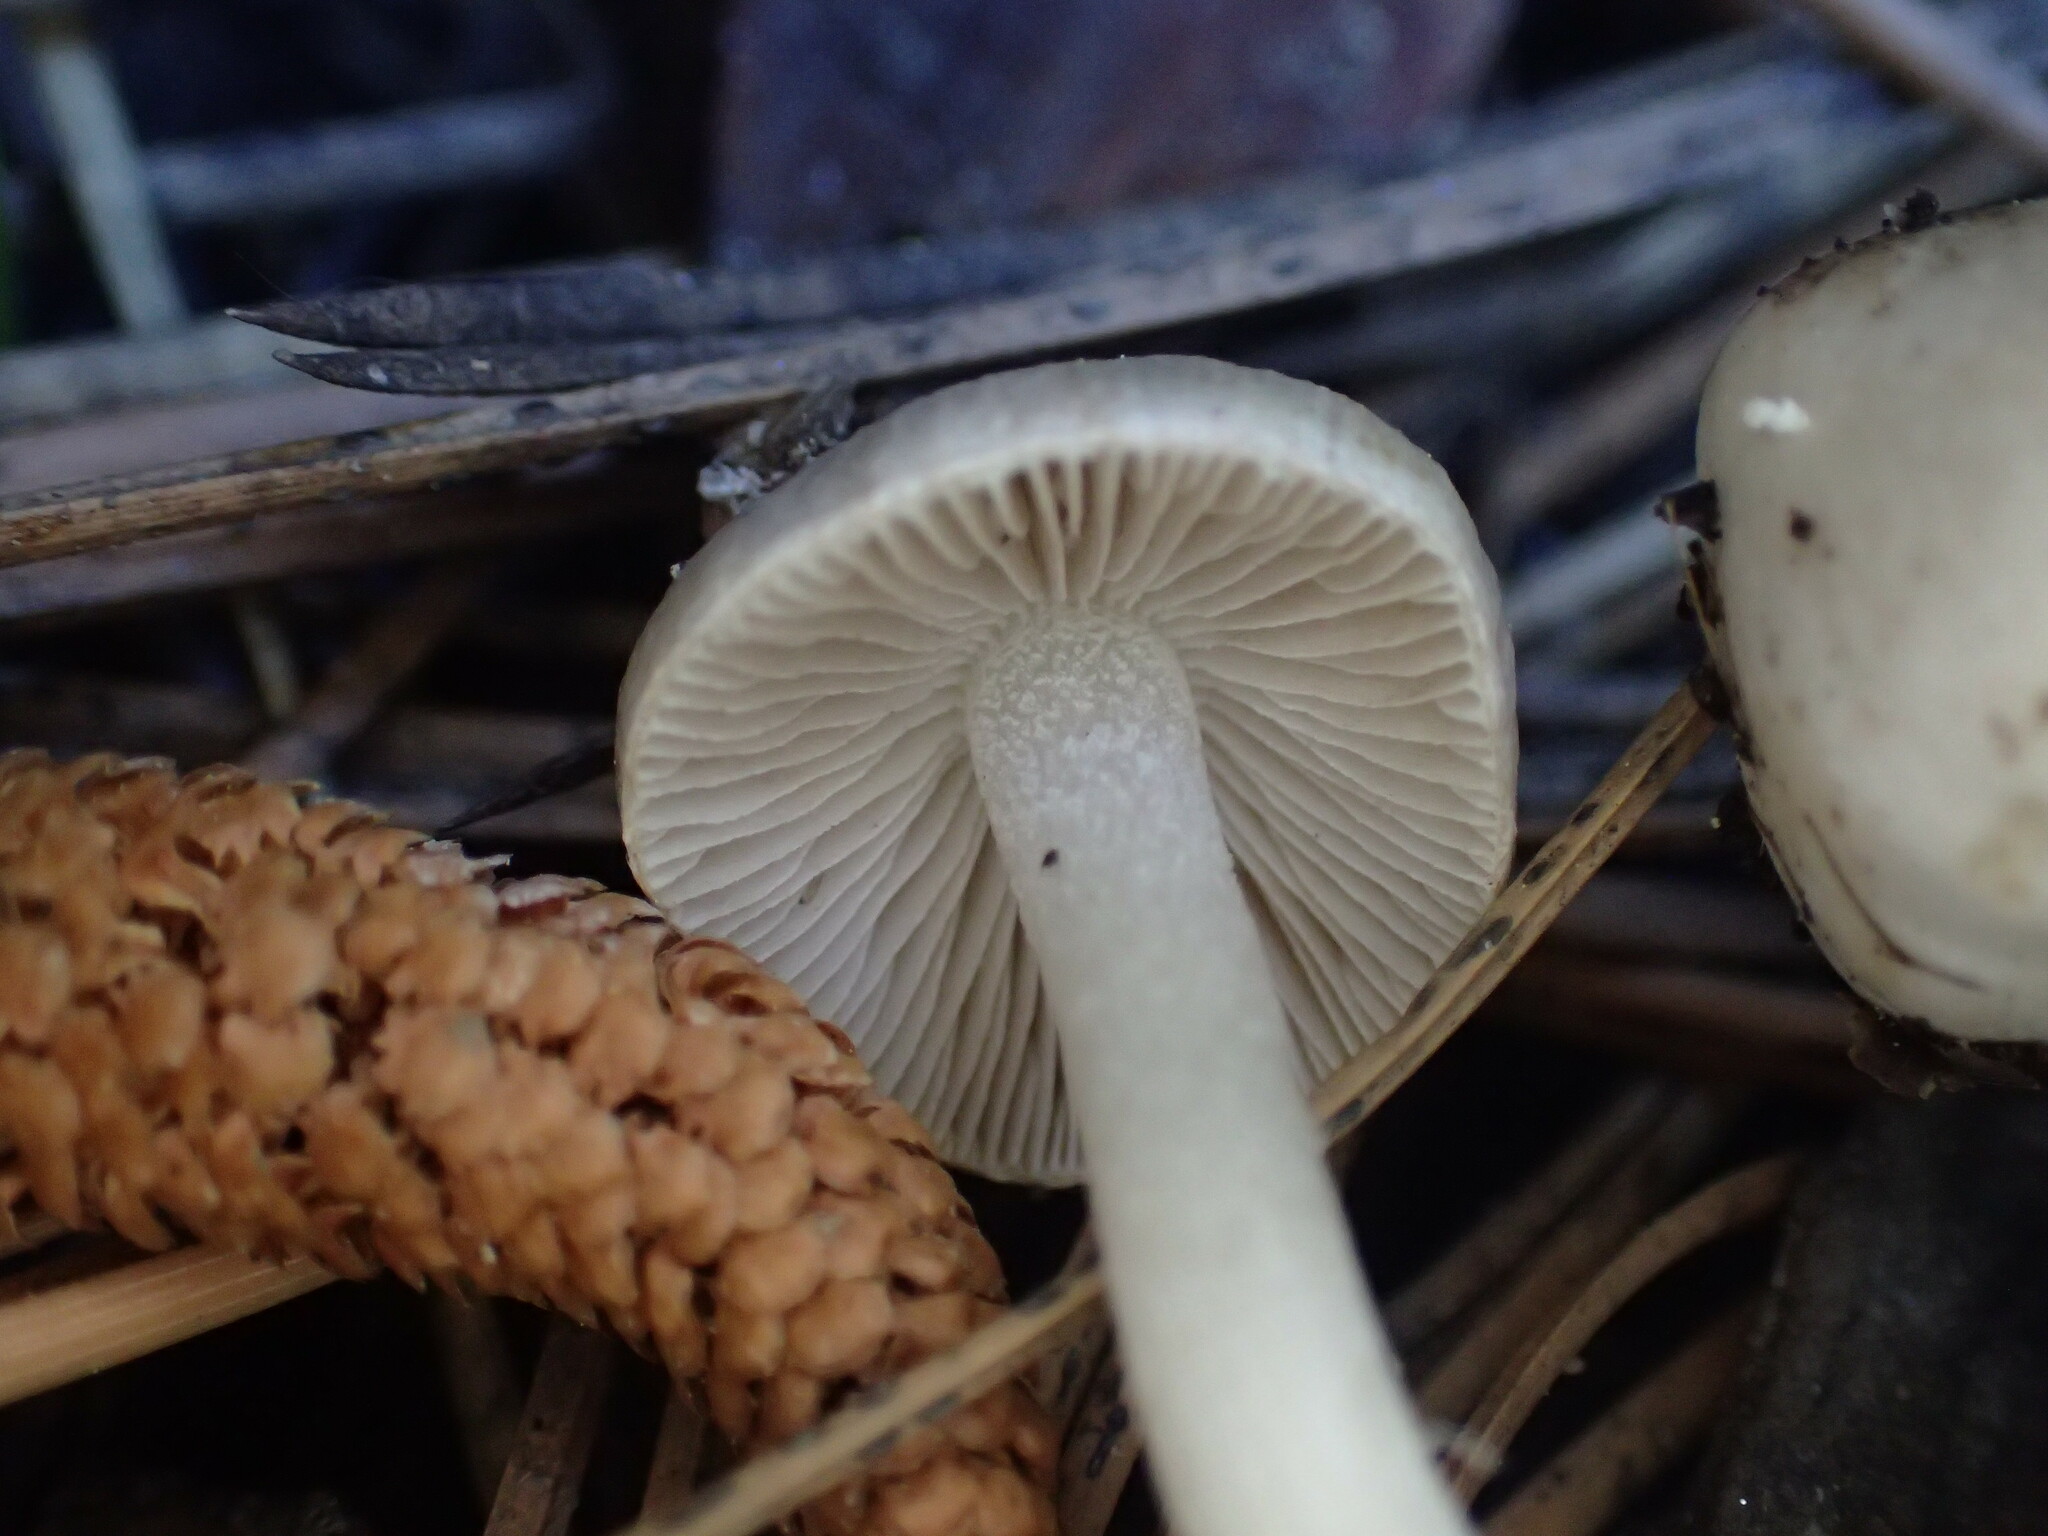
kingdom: Fungi
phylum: Basidiomycota
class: Agaricomycetes
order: Agaricales
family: Inocybaceae
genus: Inocybe
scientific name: Inocybe elysii
